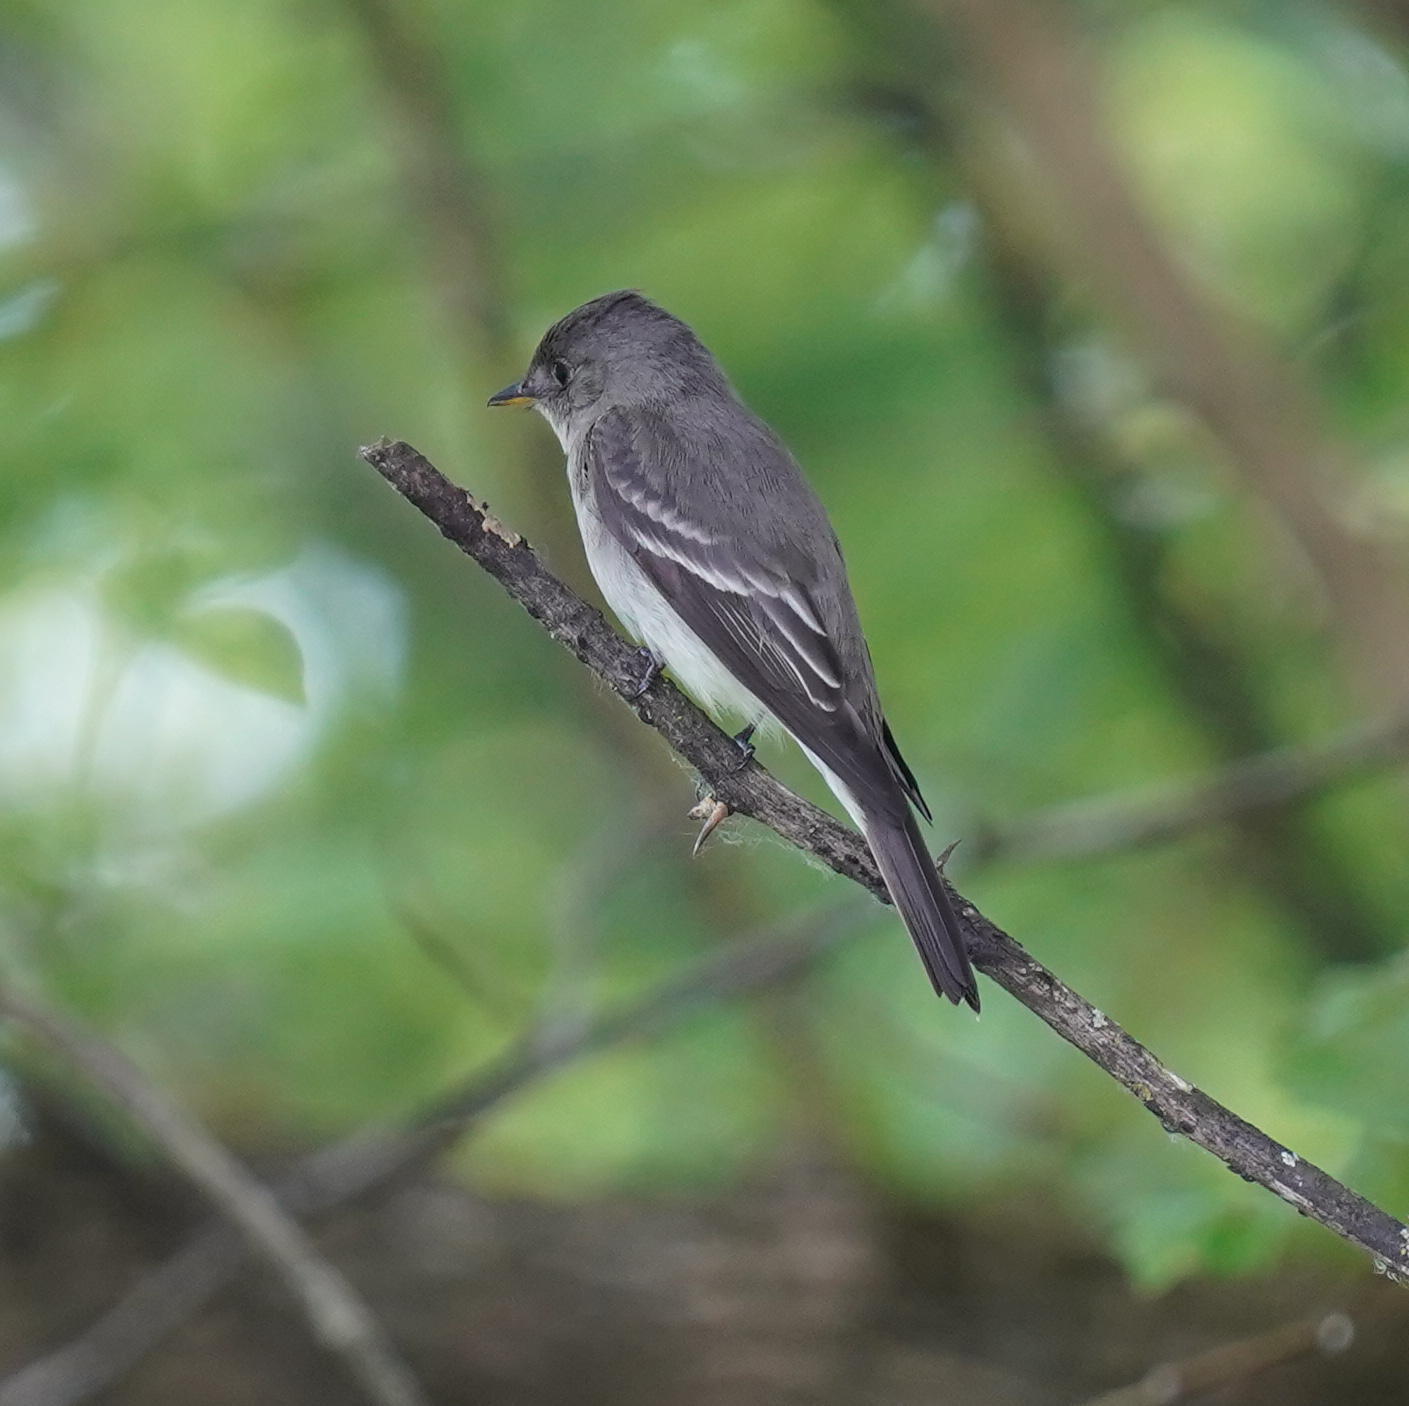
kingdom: Animalia
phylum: Chordata
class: Aves
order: Passeriformes
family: Tyrannidae
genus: Contopus
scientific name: Contopus virens
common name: Eastern wood-pewee
